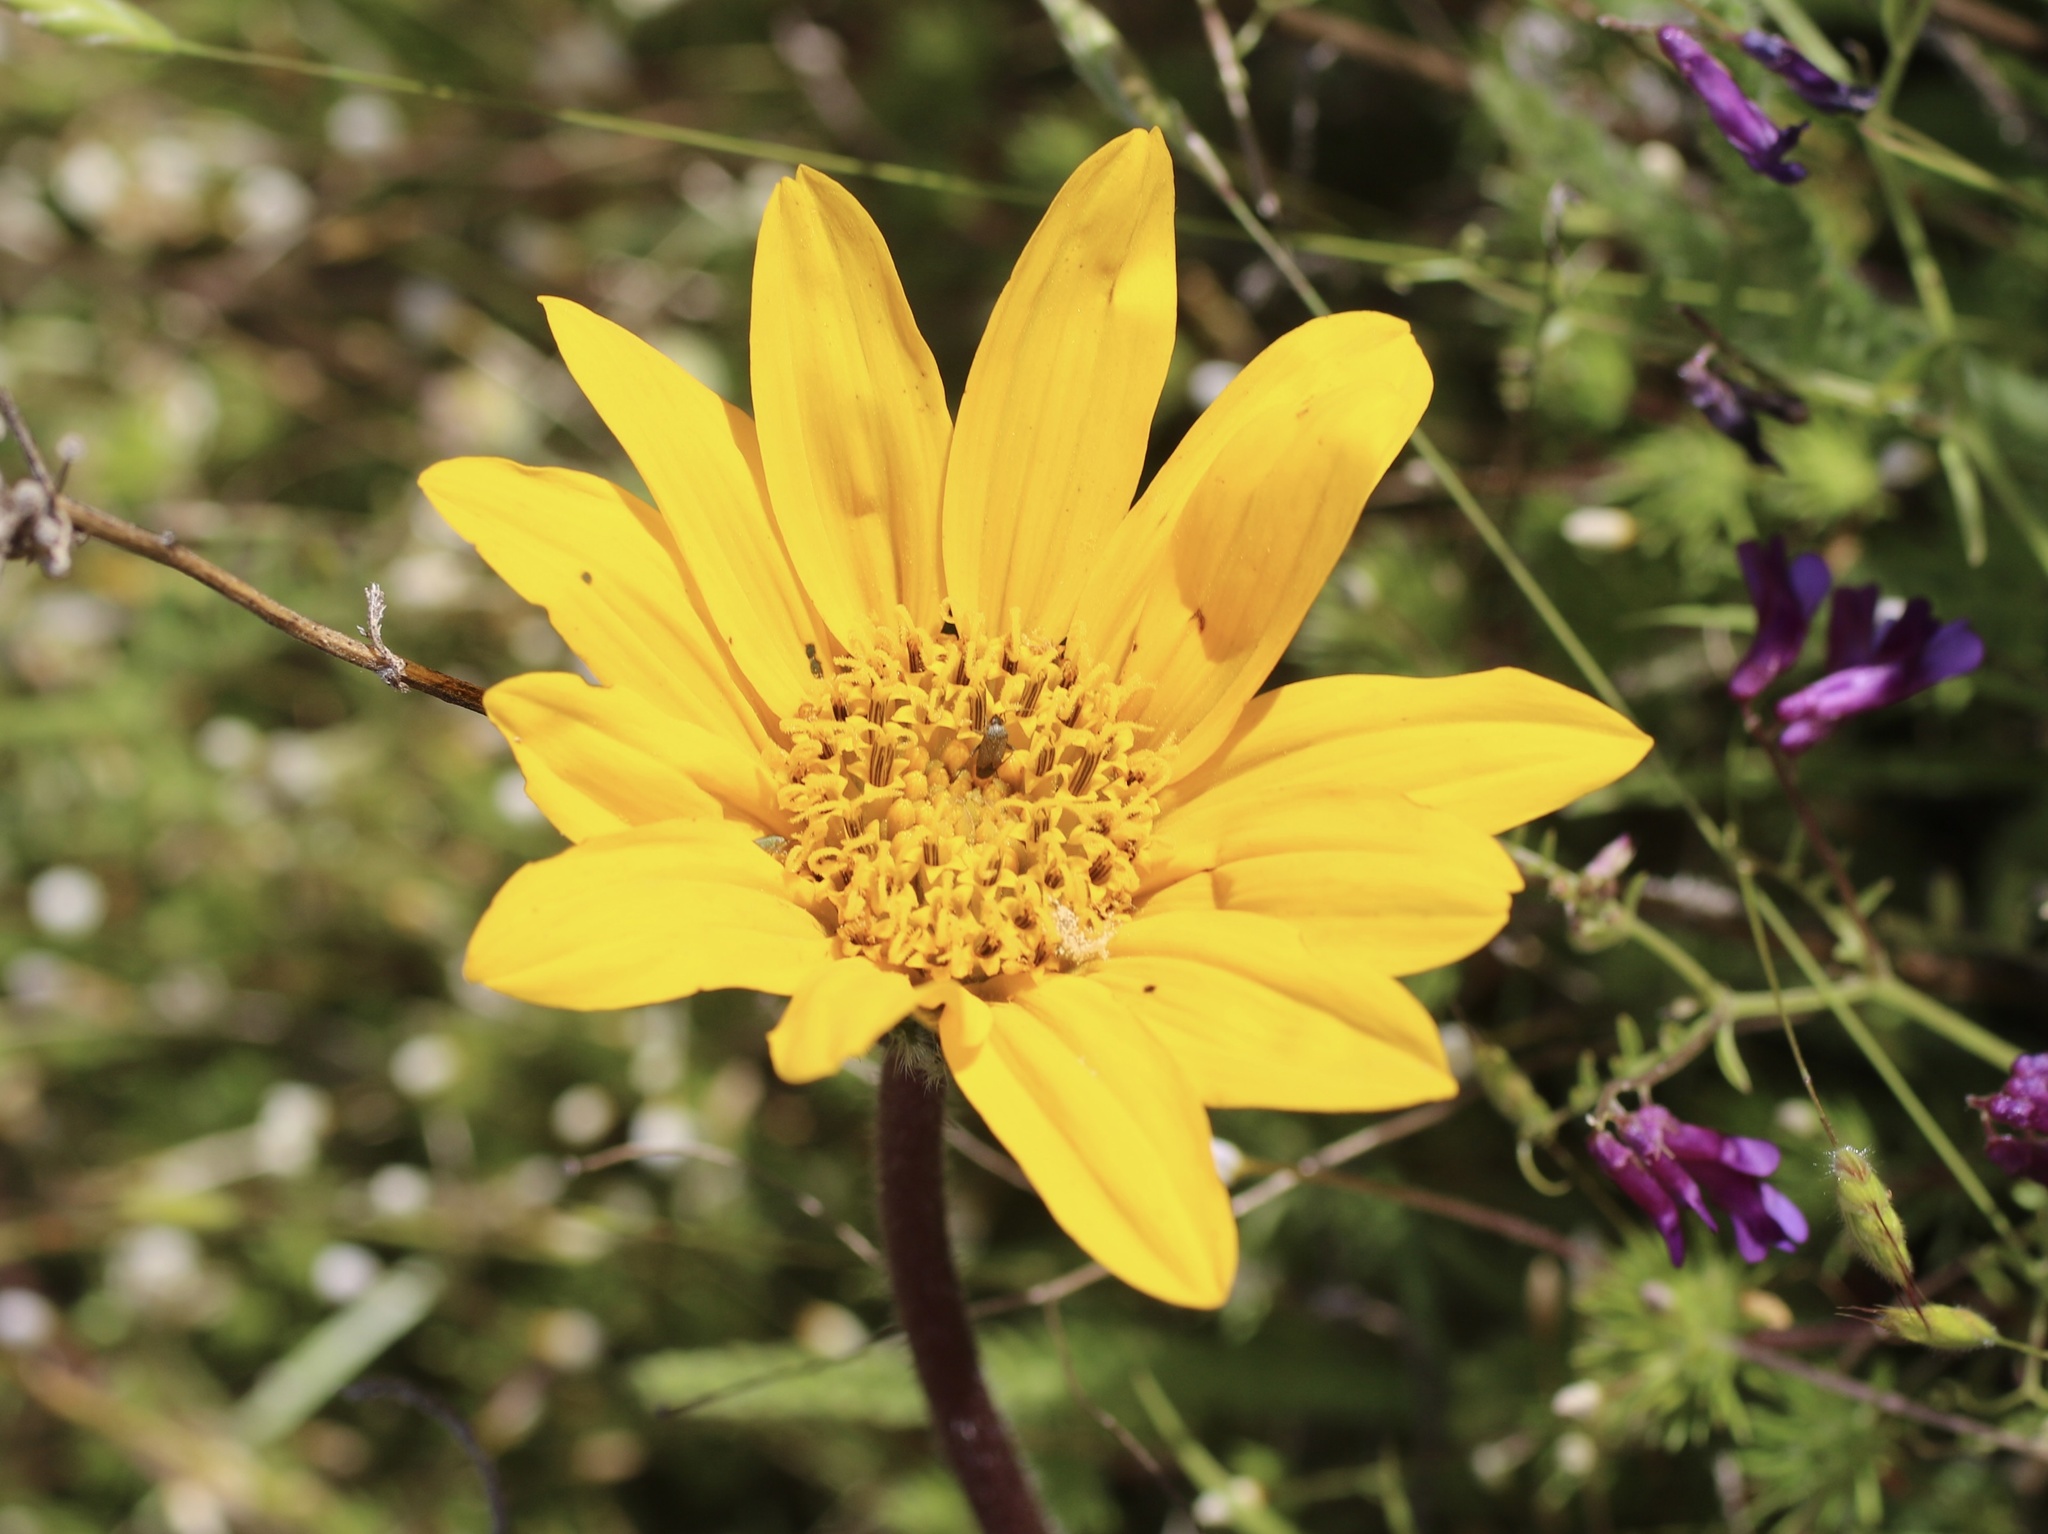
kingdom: Plantae
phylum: Tracheophyta
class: Magnoliopsida
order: Asterales
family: Asteraceae
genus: Wyethia
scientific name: Wyethia angustifolia
